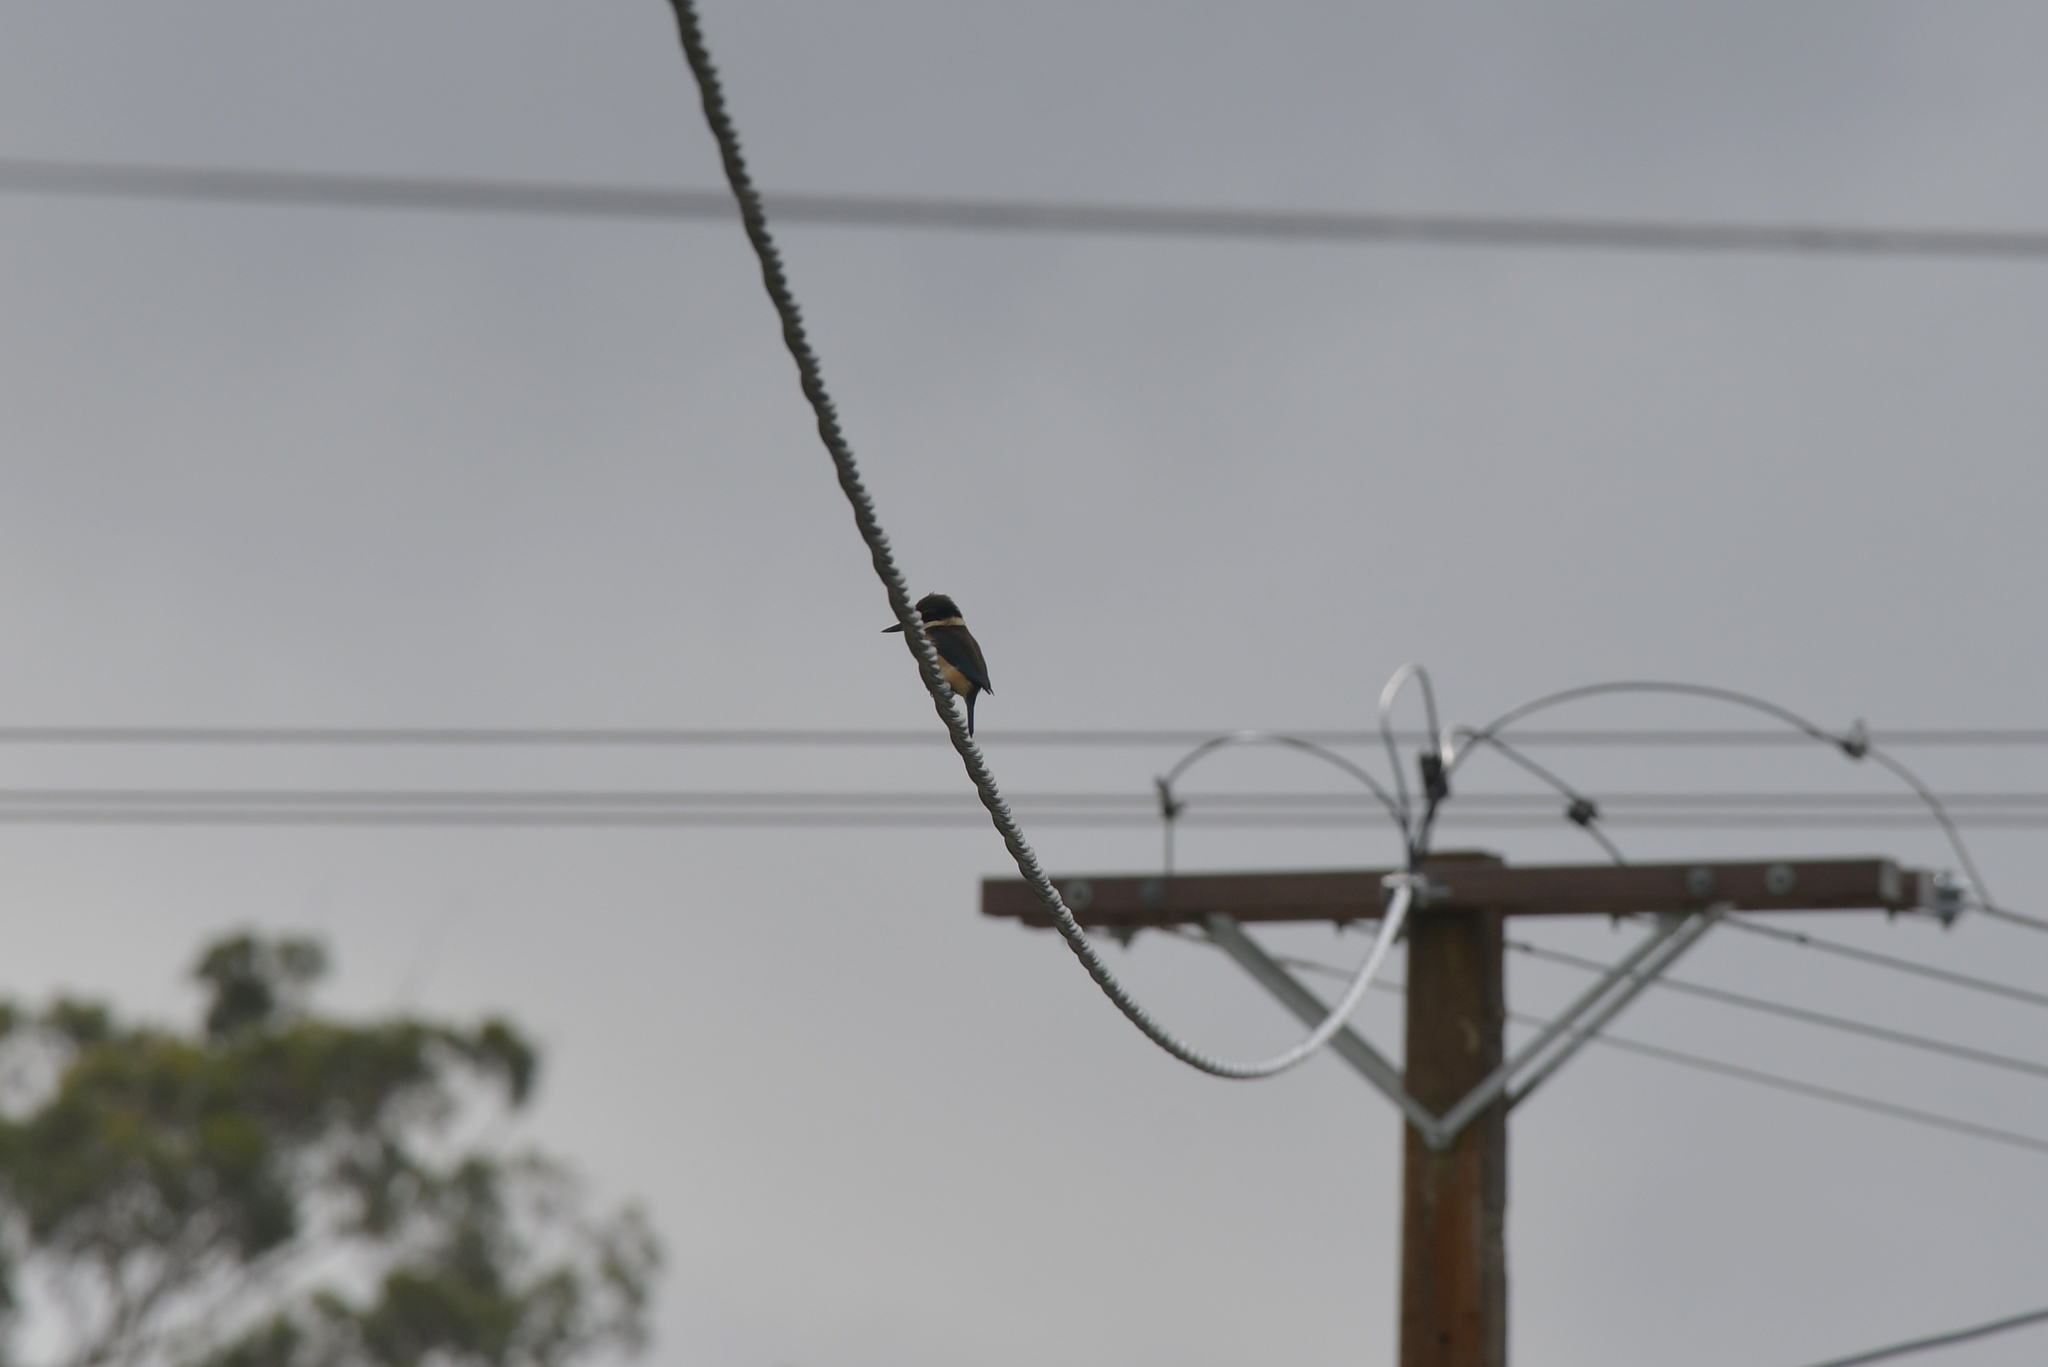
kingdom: Animalia
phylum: Chordata
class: Aves
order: Coraciiformes
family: Alcedinidae
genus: Todiramphus
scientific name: Todiramphus sanctus
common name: Sacred kingfisher
